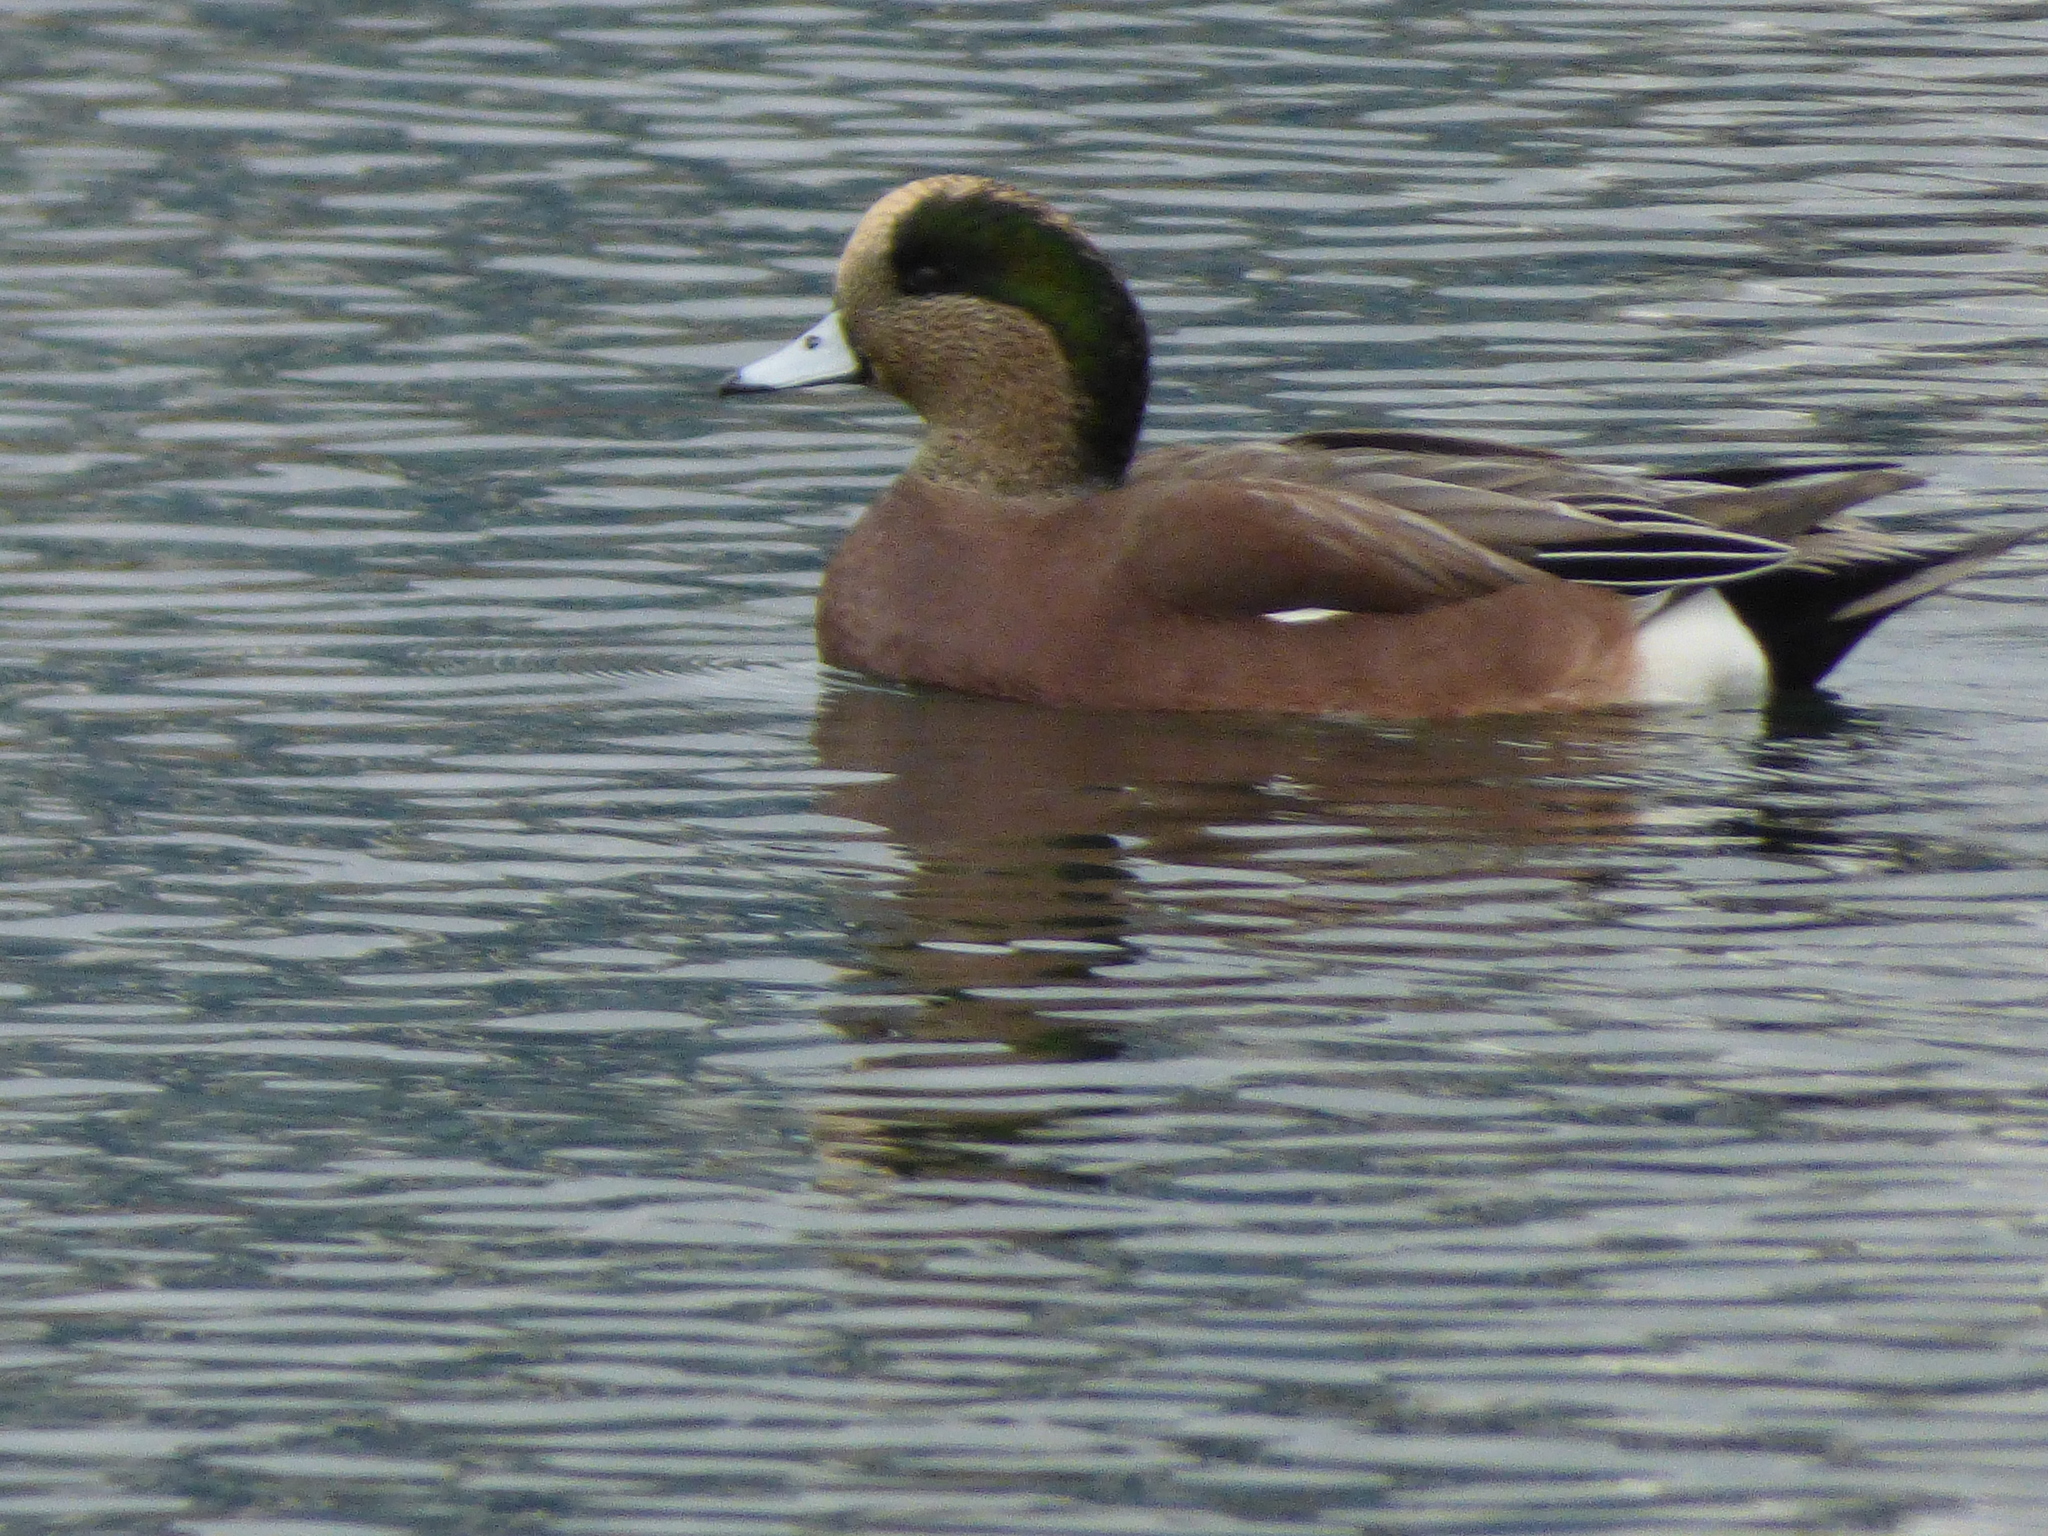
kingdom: Animalia
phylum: Chordata
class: Aves
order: Anseriformes
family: Anatidae
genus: Mareca
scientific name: Mareca americana
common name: American wigeon
